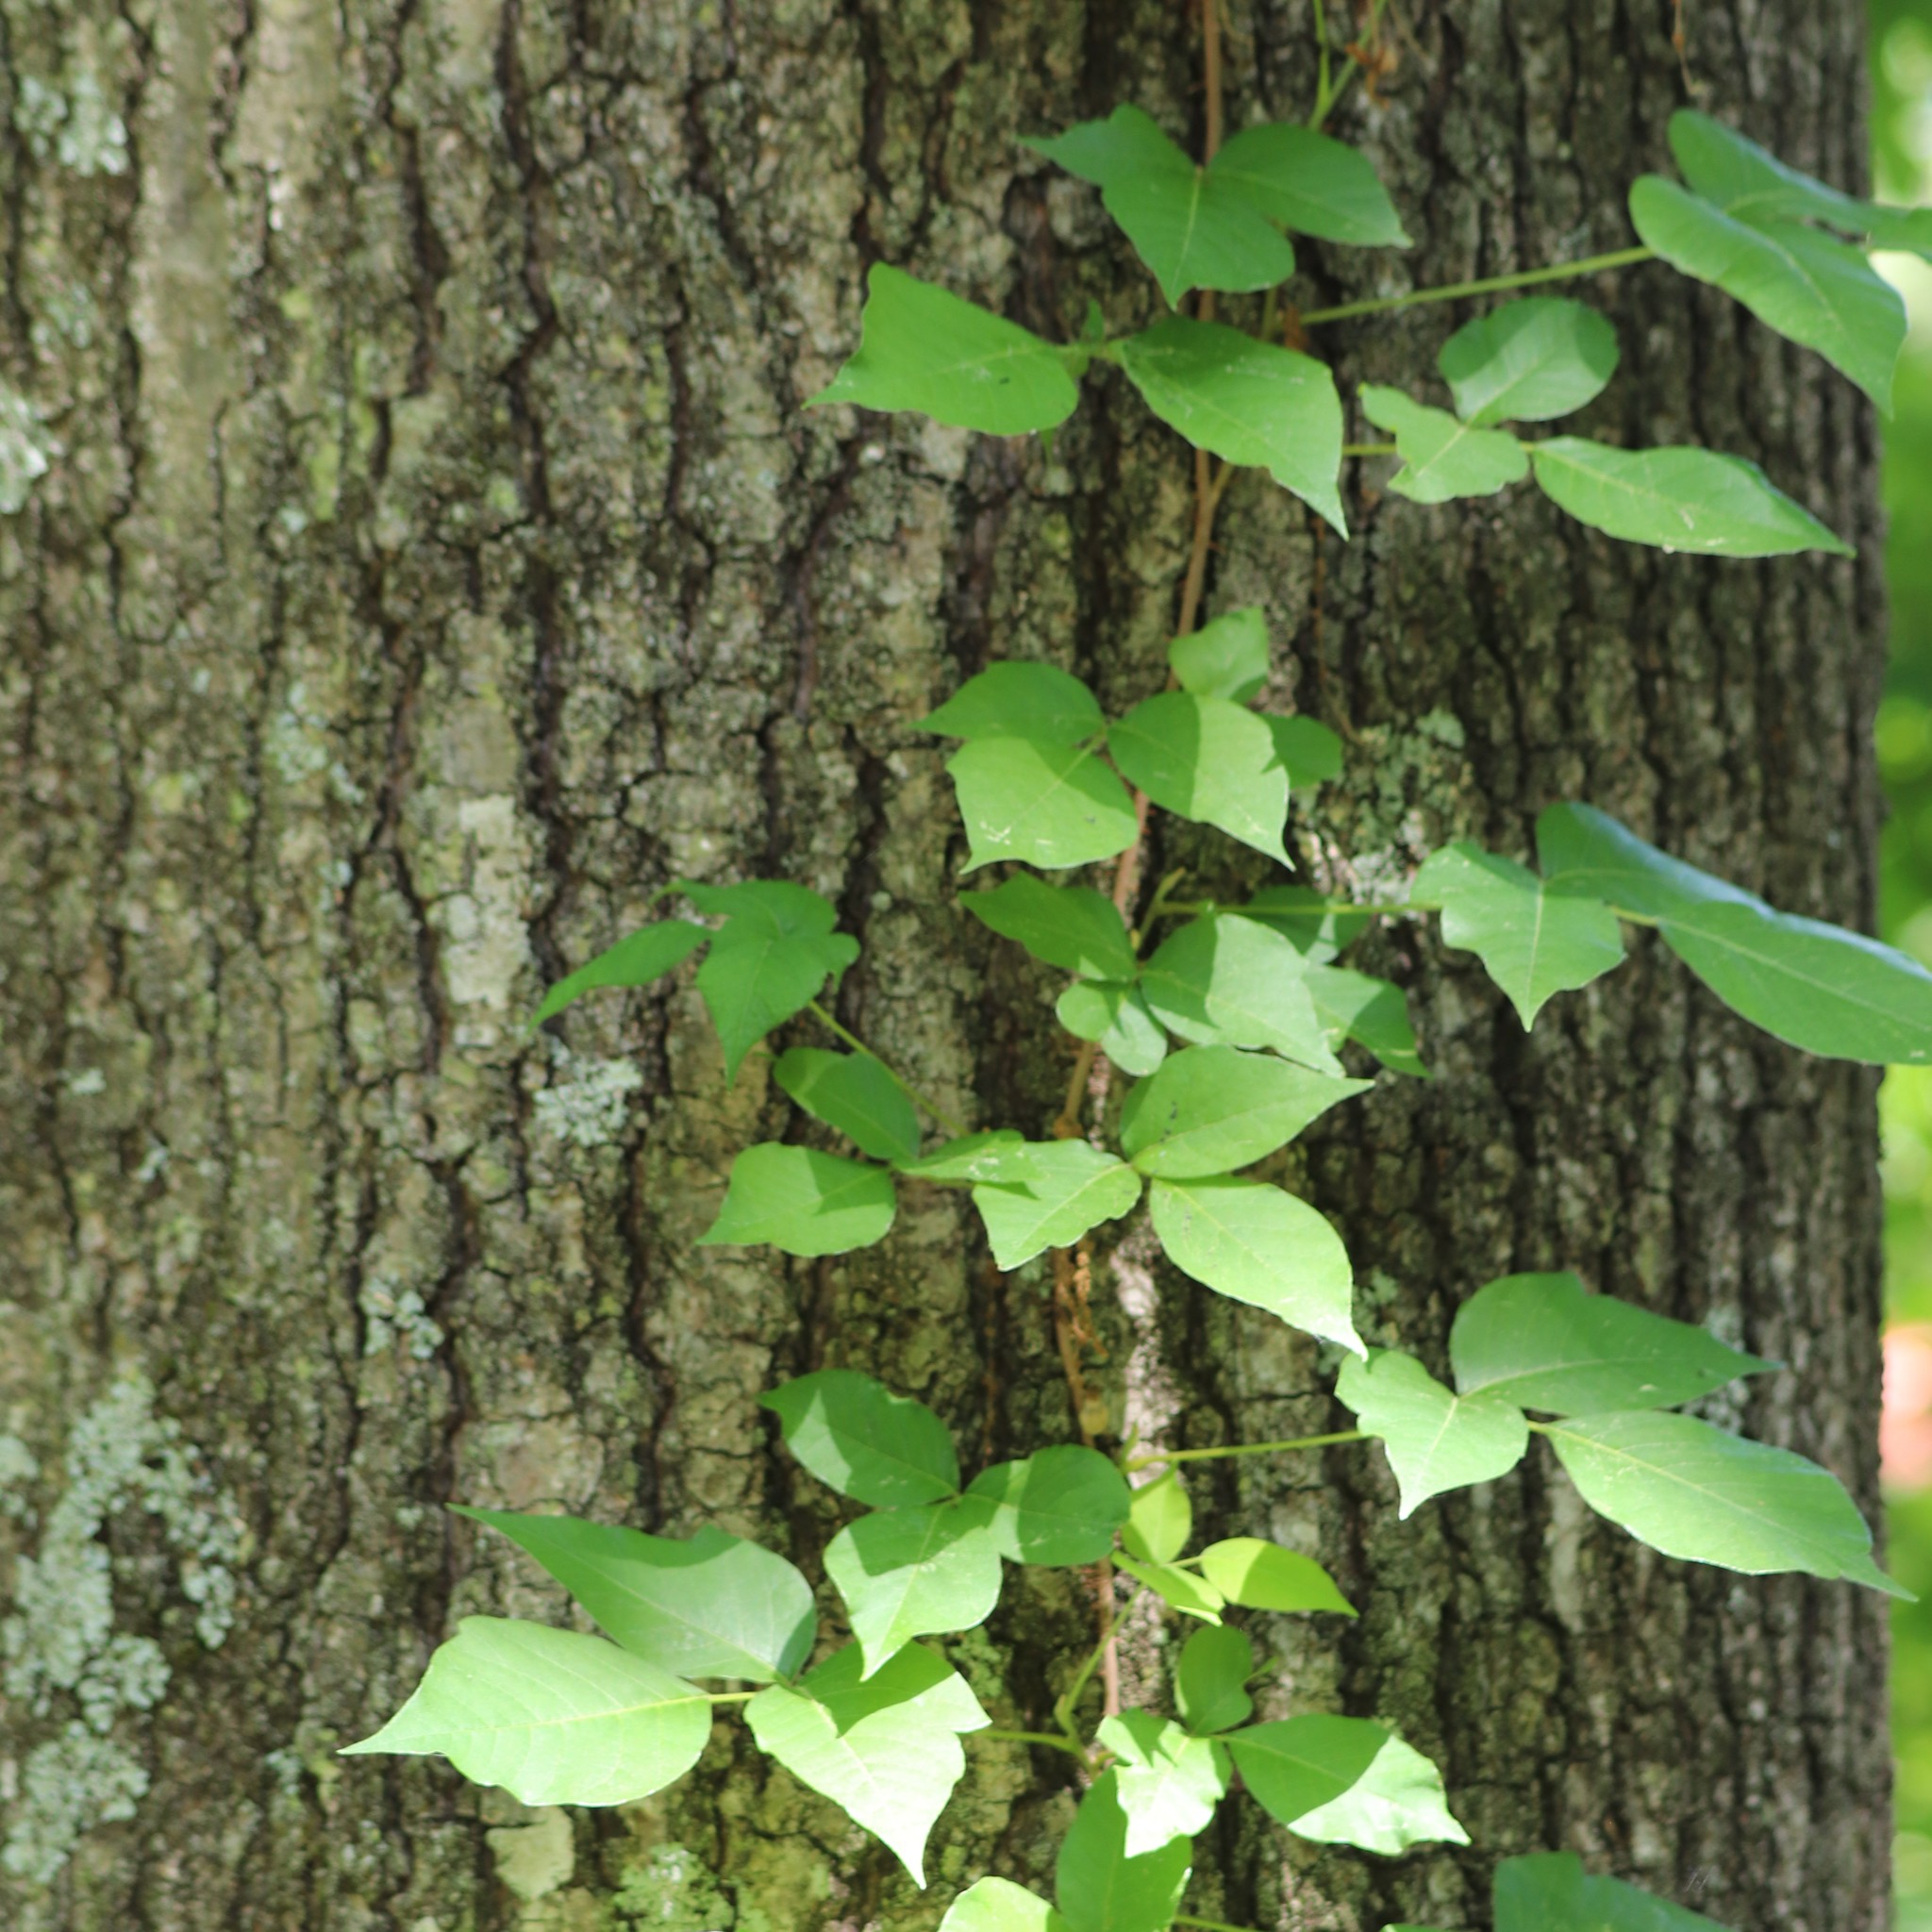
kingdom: Plantae
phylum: Tracheophyta
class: Magnoliopsida
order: Sapindales
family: Anacardiaceae
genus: Toxicodendron
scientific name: Toxicodendron radicans
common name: Poison ivy
